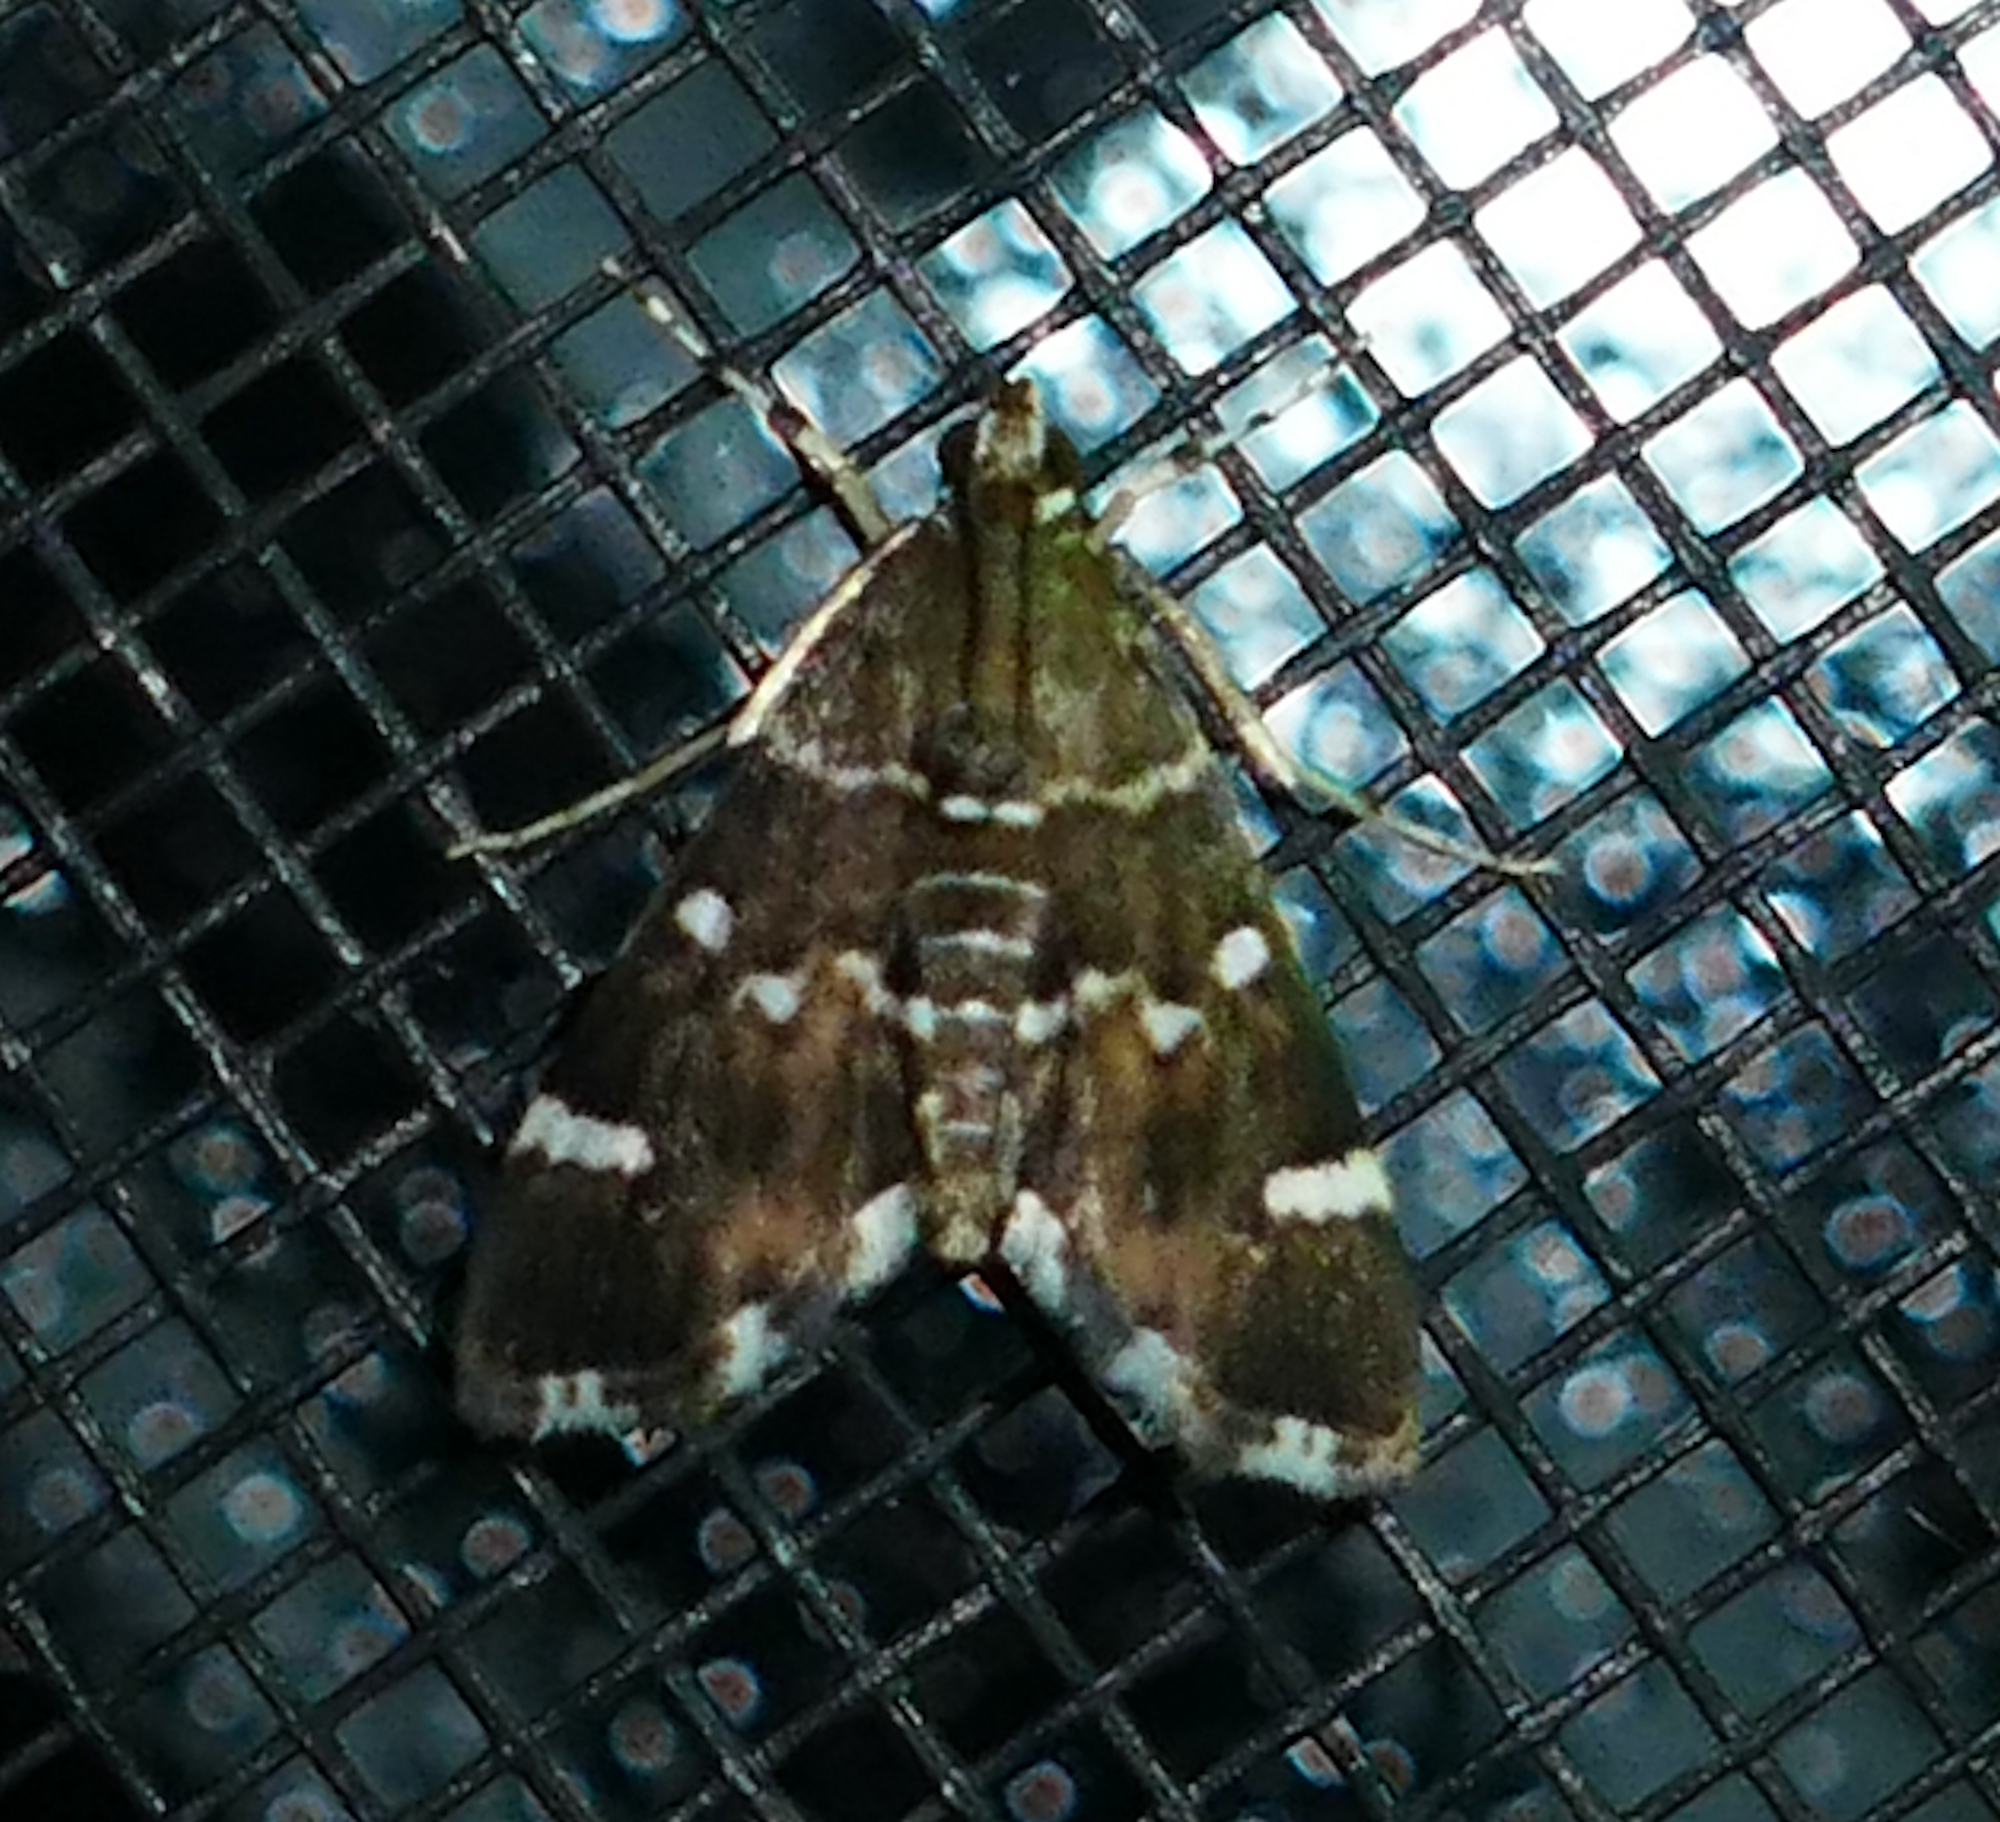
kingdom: Animalia
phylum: Arthropoda
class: Insecta
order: Lepidoptera
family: Crambidae
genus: Hymenia
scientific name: Hymenia perspectalis
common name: Spotted beet webworm
